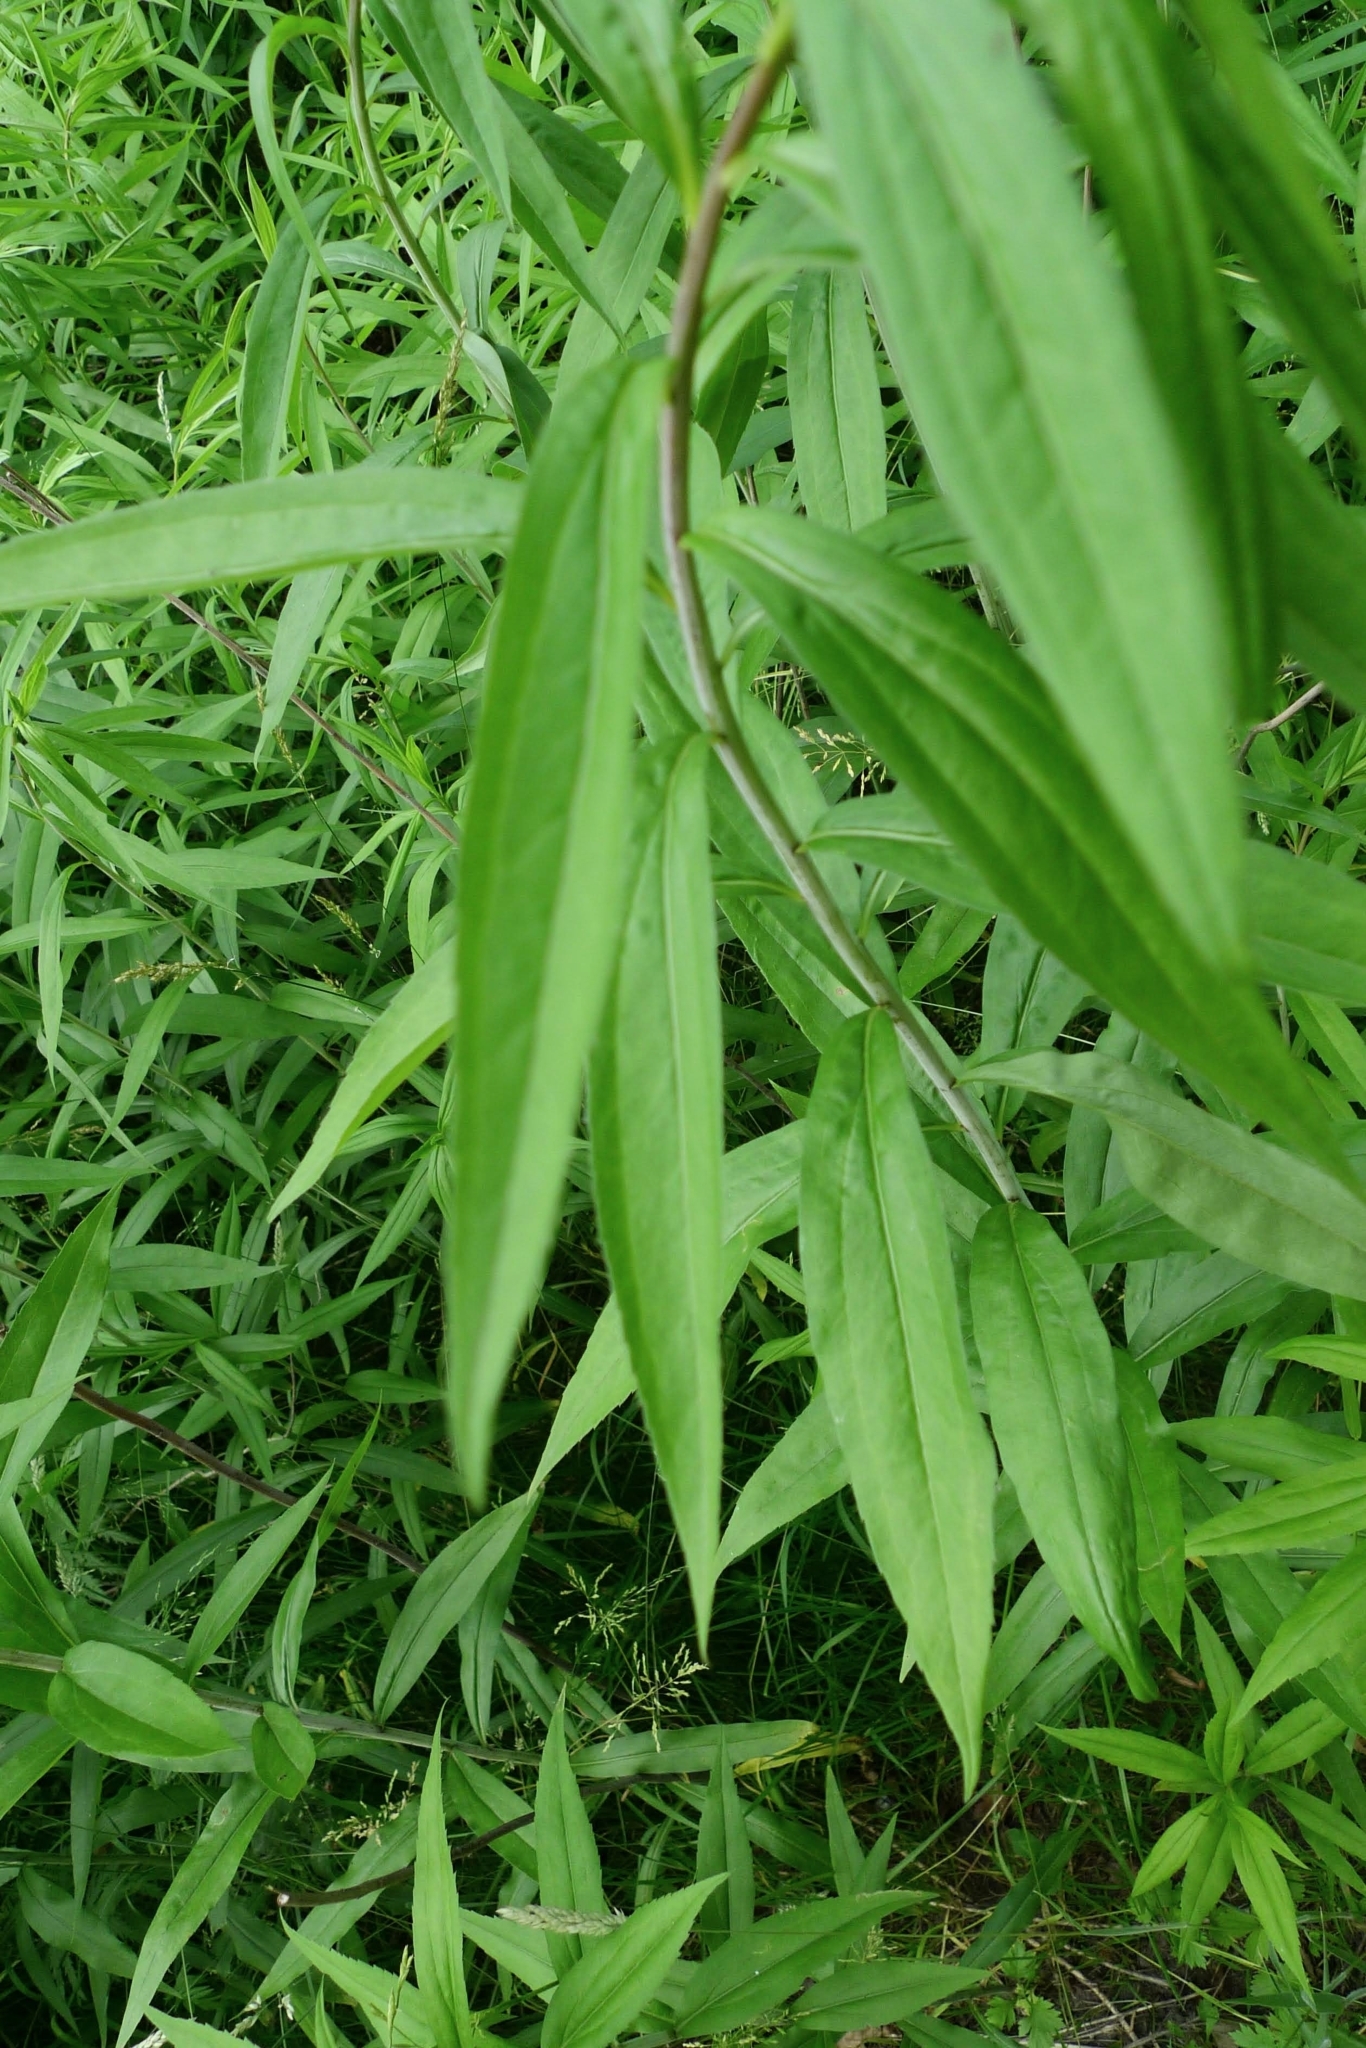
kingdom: Plantae
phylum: Tracheophyta
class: Magnoliopsida
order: Asterales
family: Asteraceae
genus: Solidago
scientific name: Solidago gigantea
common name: Giant goldenrod
